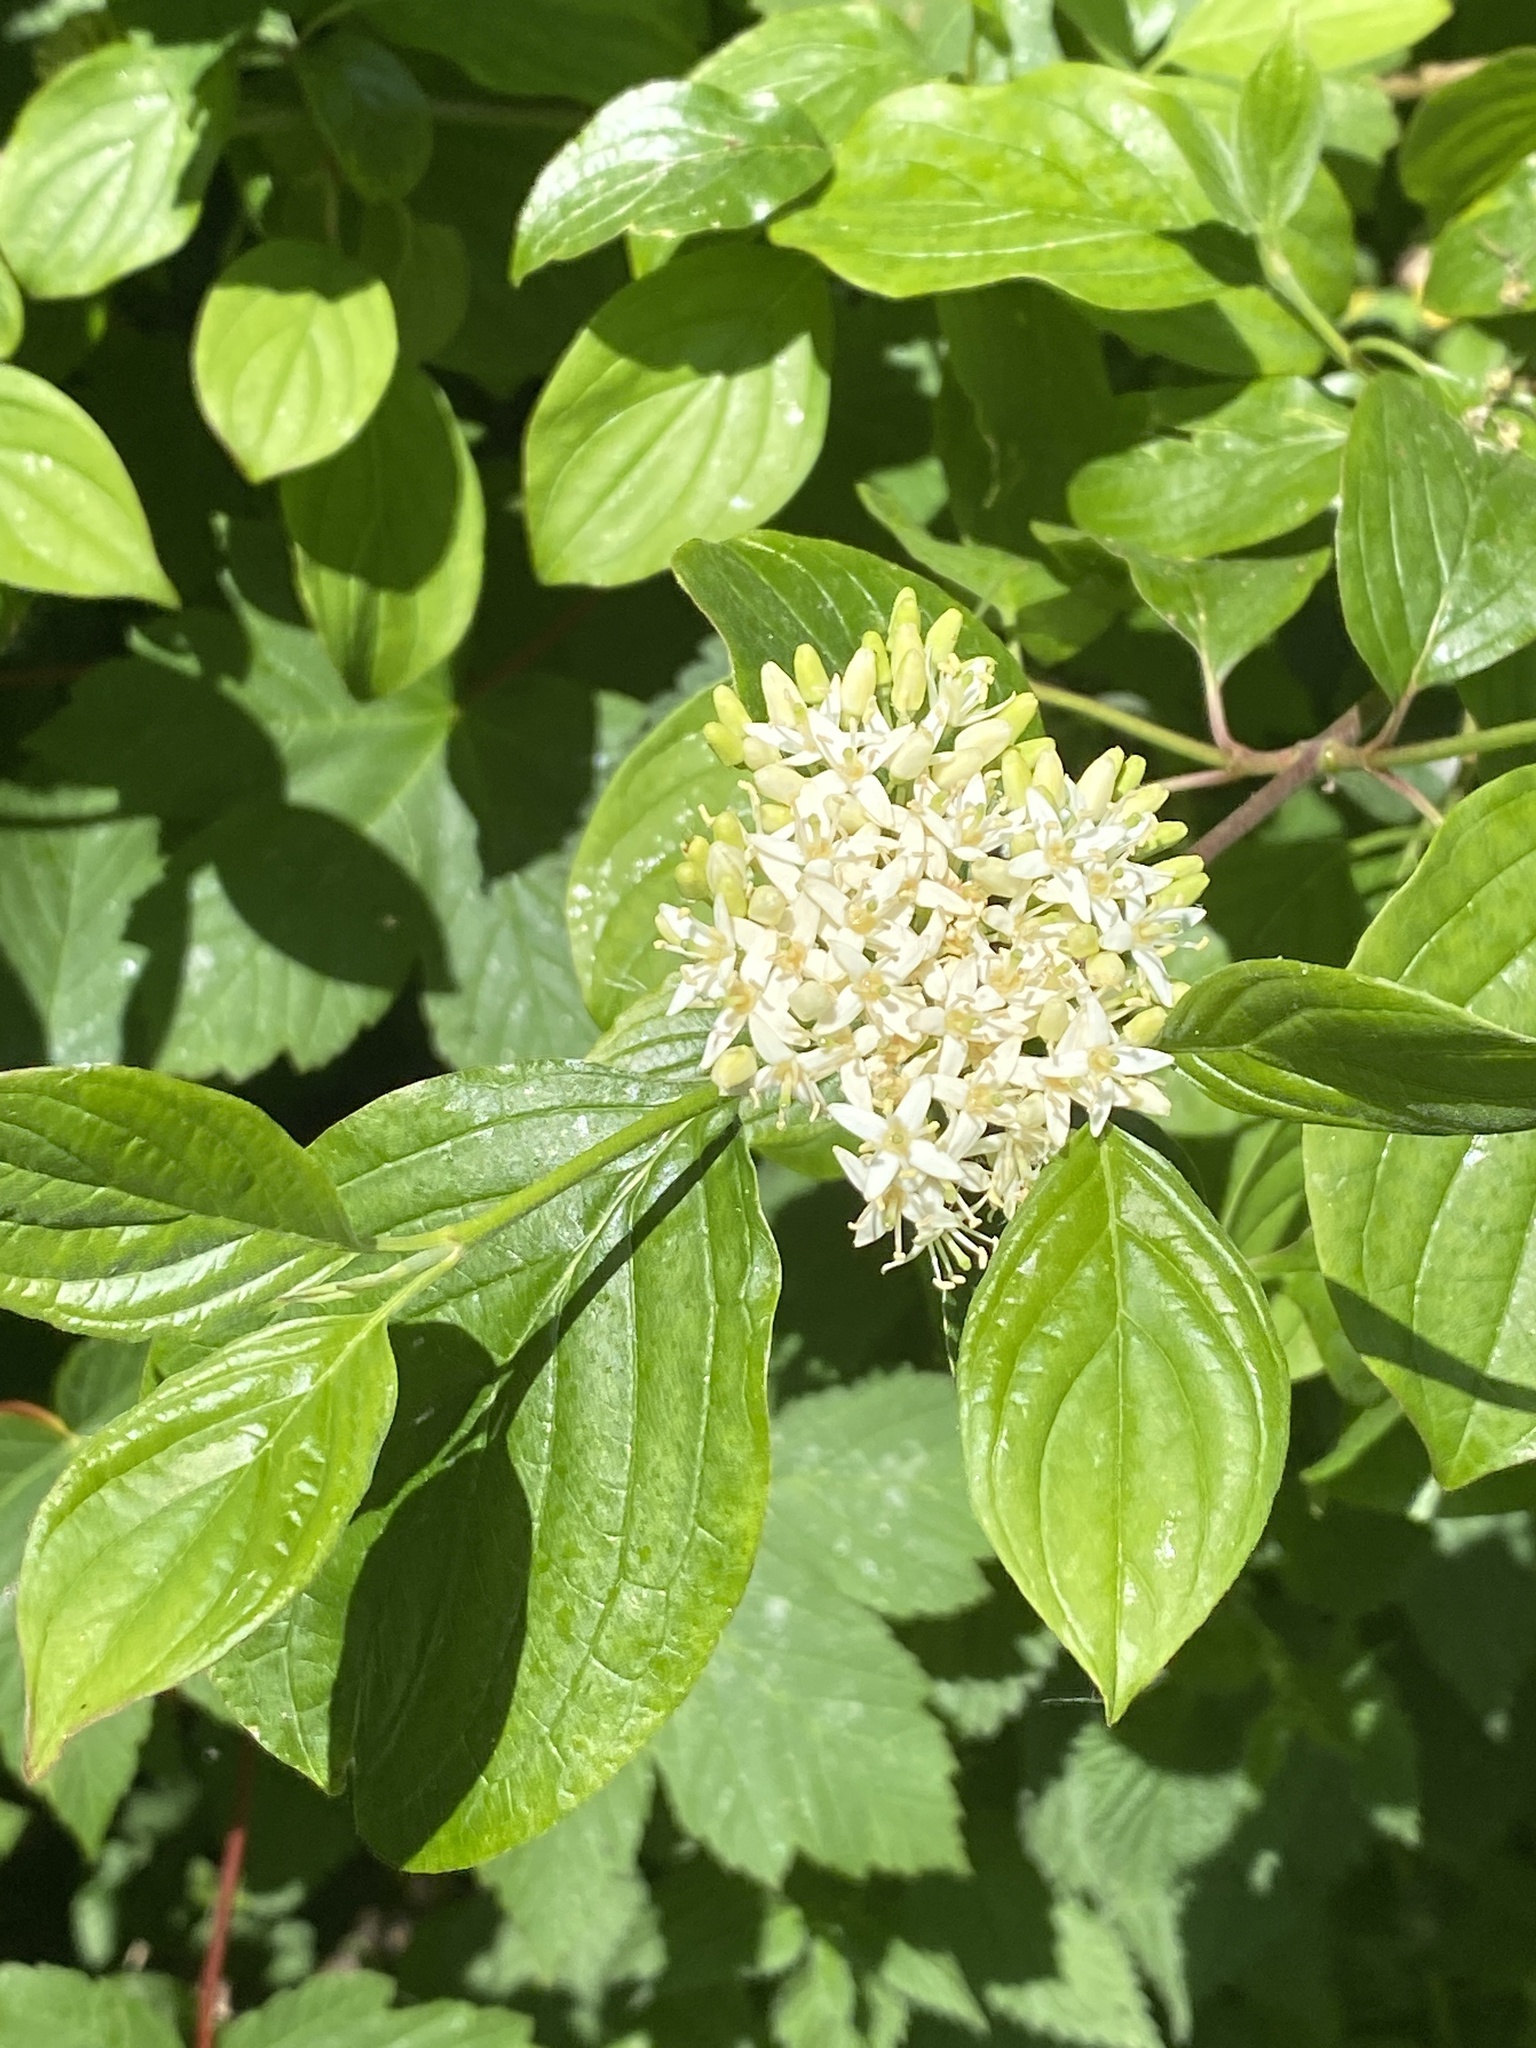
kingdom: Plantae
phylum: Tracheophyta
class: Magnoliopsida
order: Cornales
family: Cornaceae
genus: Cornus
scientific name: Cornus sanguinea
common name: Dogwood
